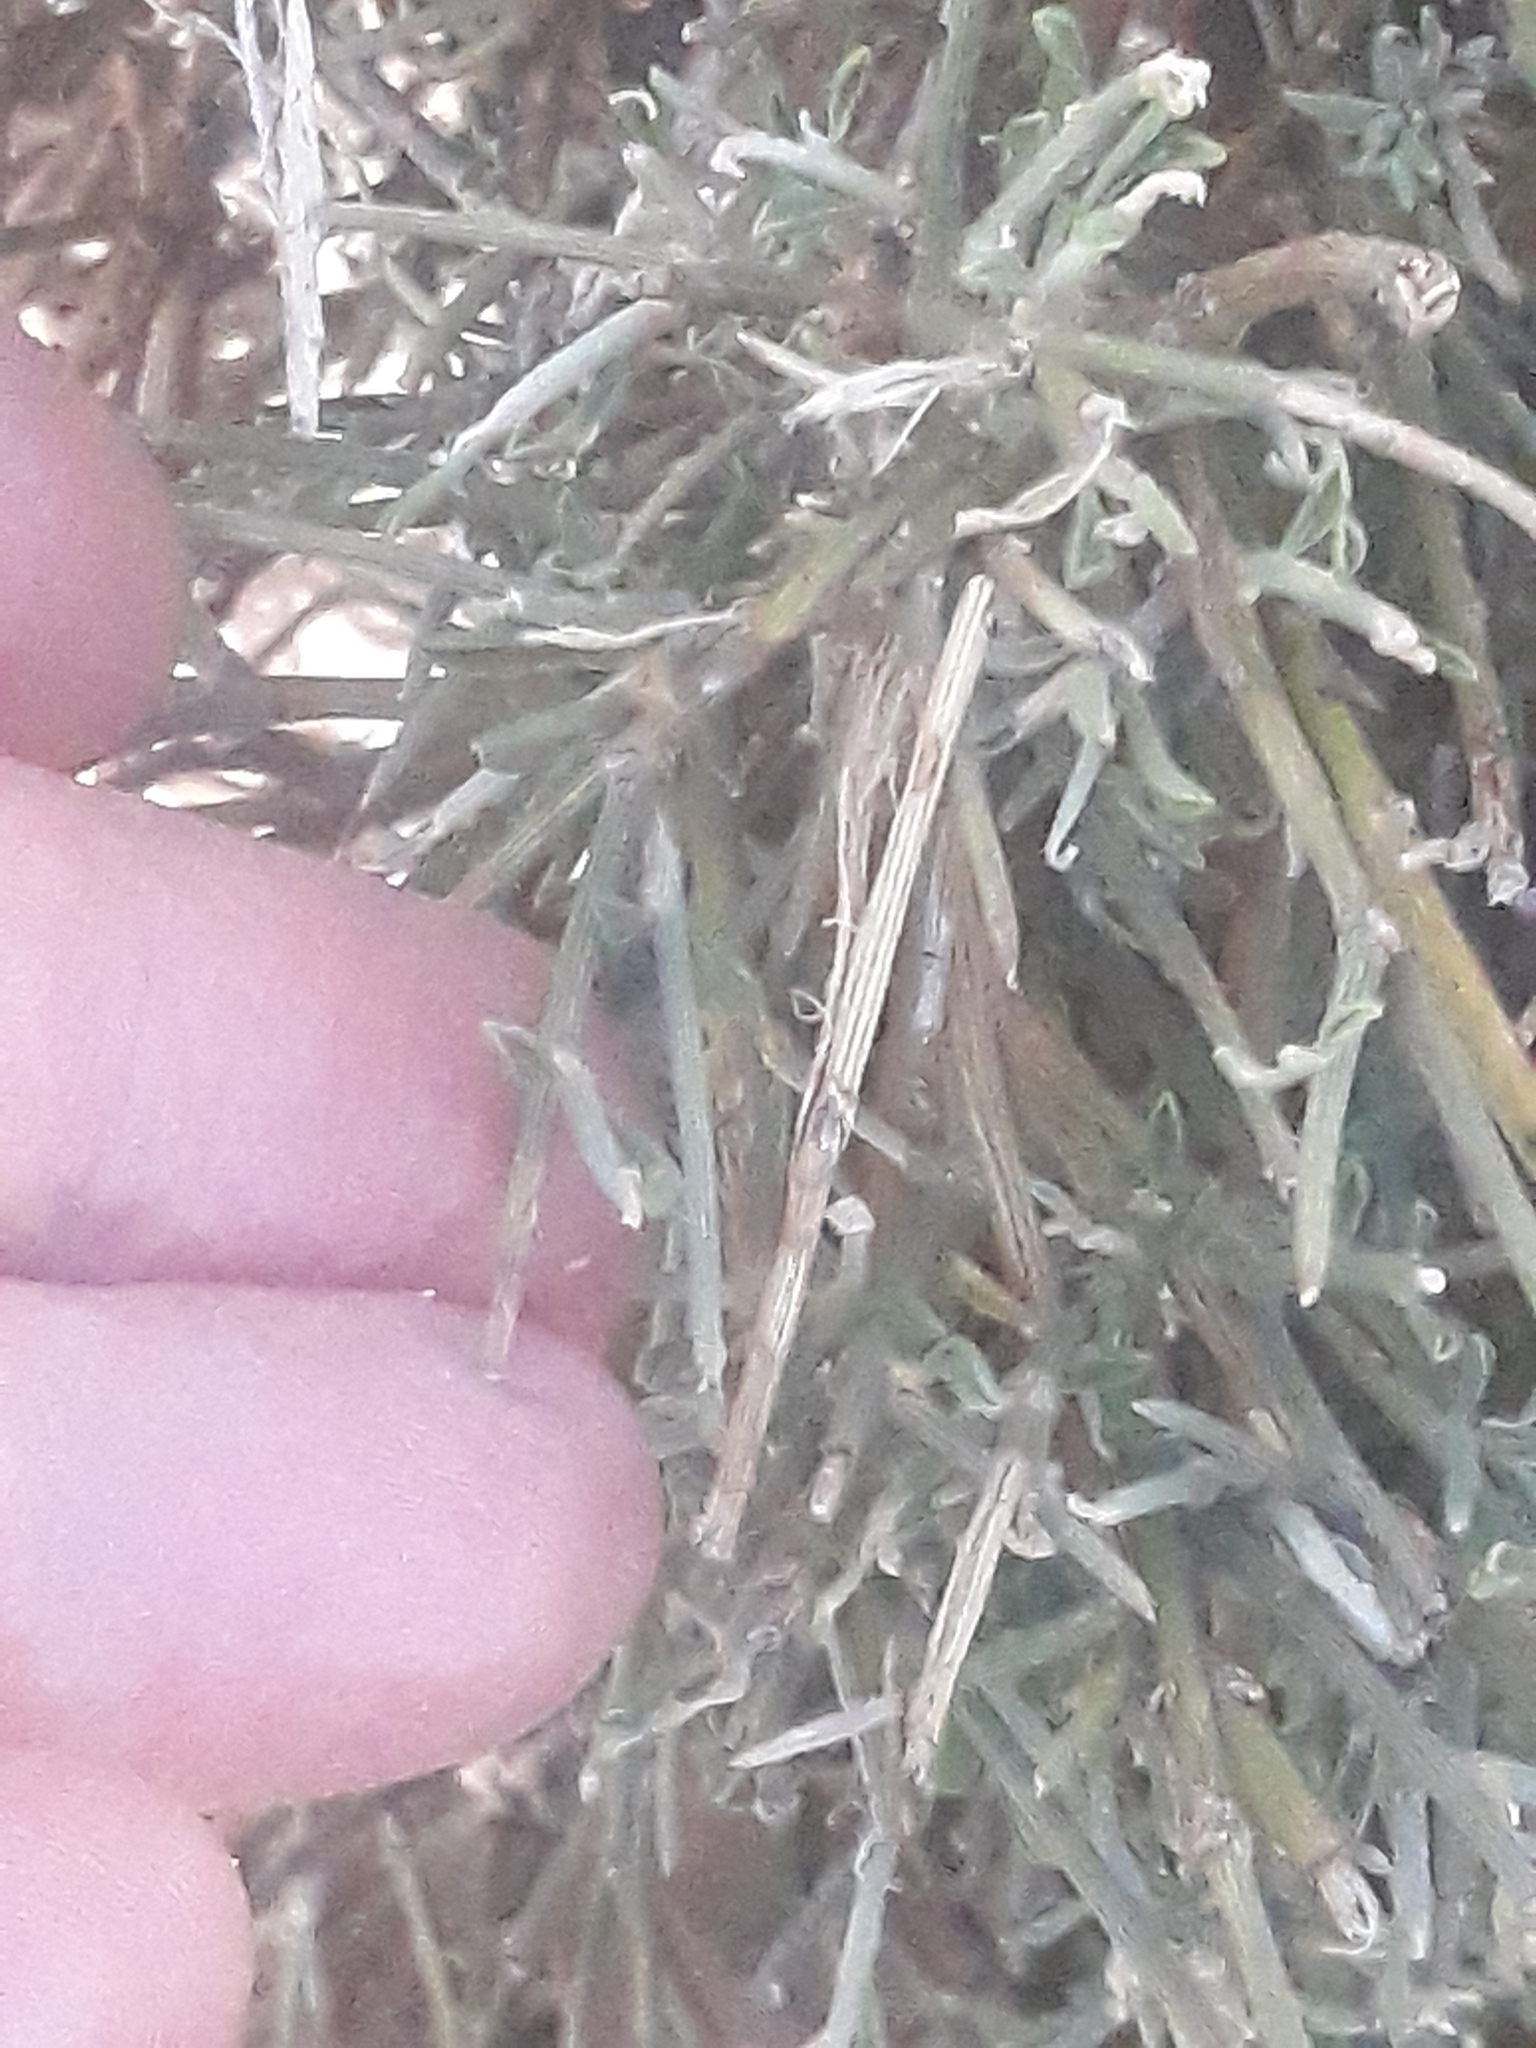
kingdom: Plantae
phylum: Tracheophyta
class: Magnoliopsida
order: Fabales
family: Fabaceae
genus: Genista
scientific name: Genista microcephala
